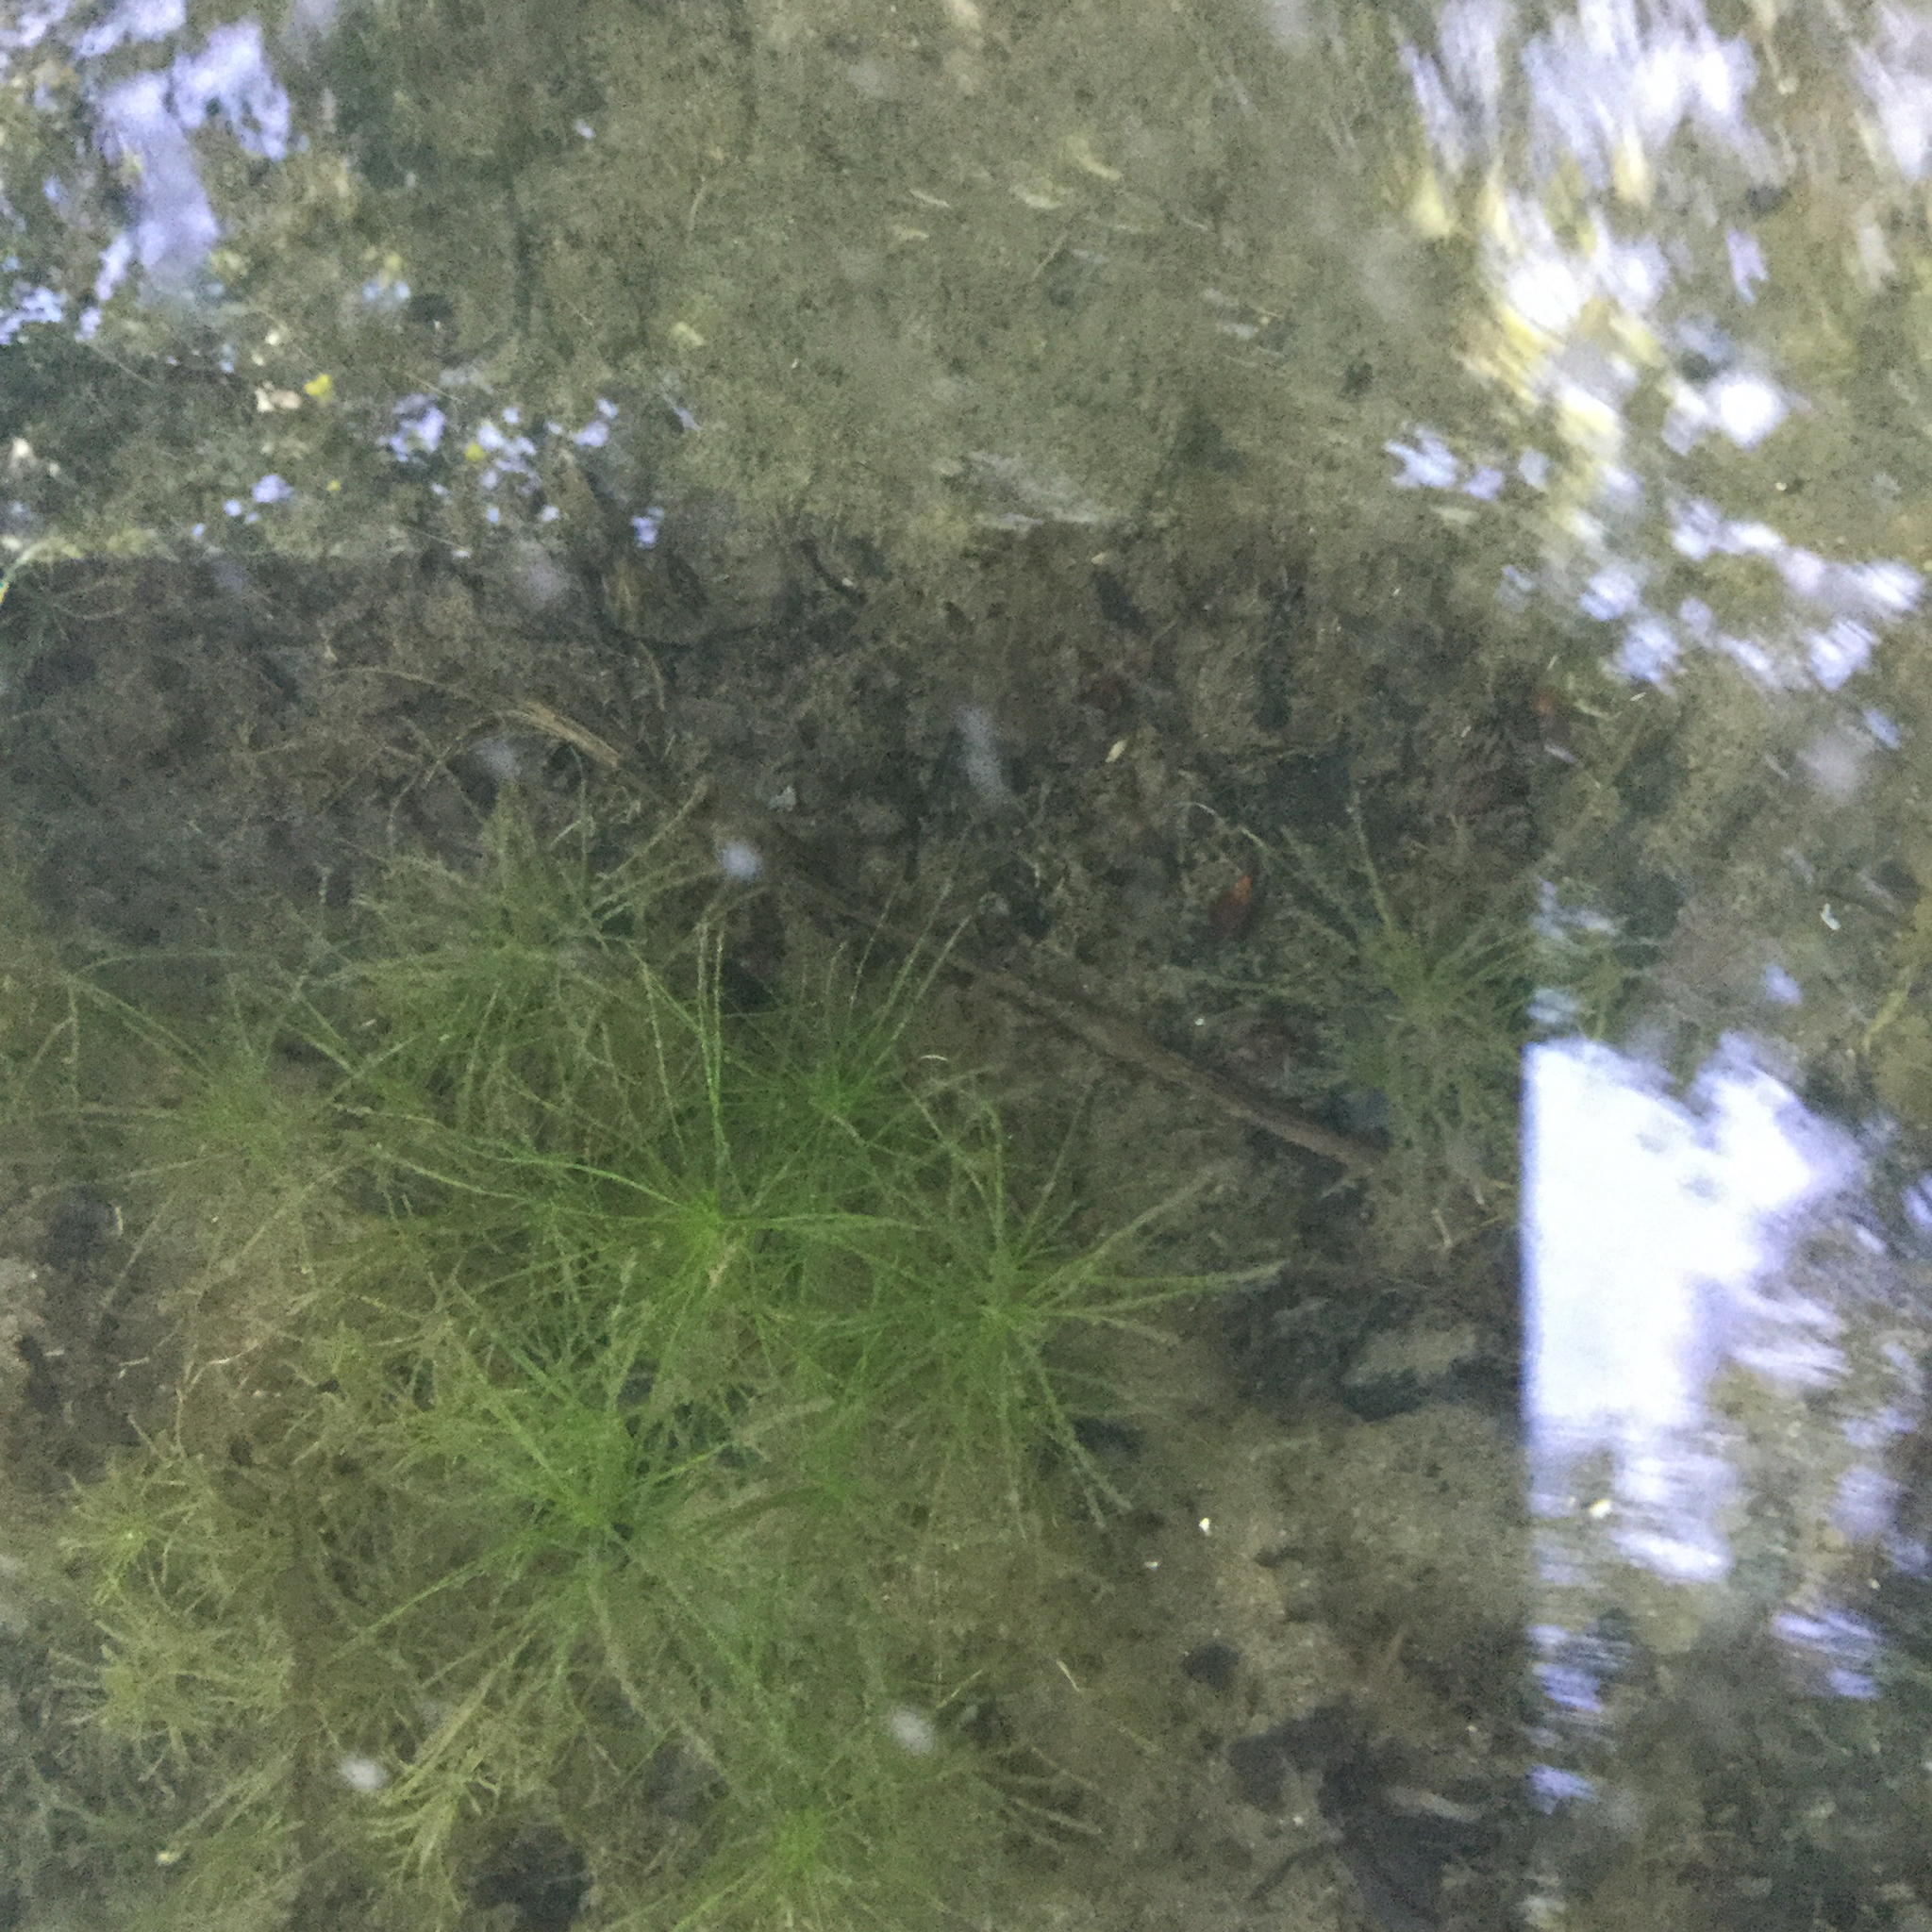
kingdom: Plantae
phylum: Tracheophyta
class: Liliopsida
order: Alismatales
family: Hydrocharitaceae
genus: Najas
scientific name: Najas minor
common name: Brittle naiad
